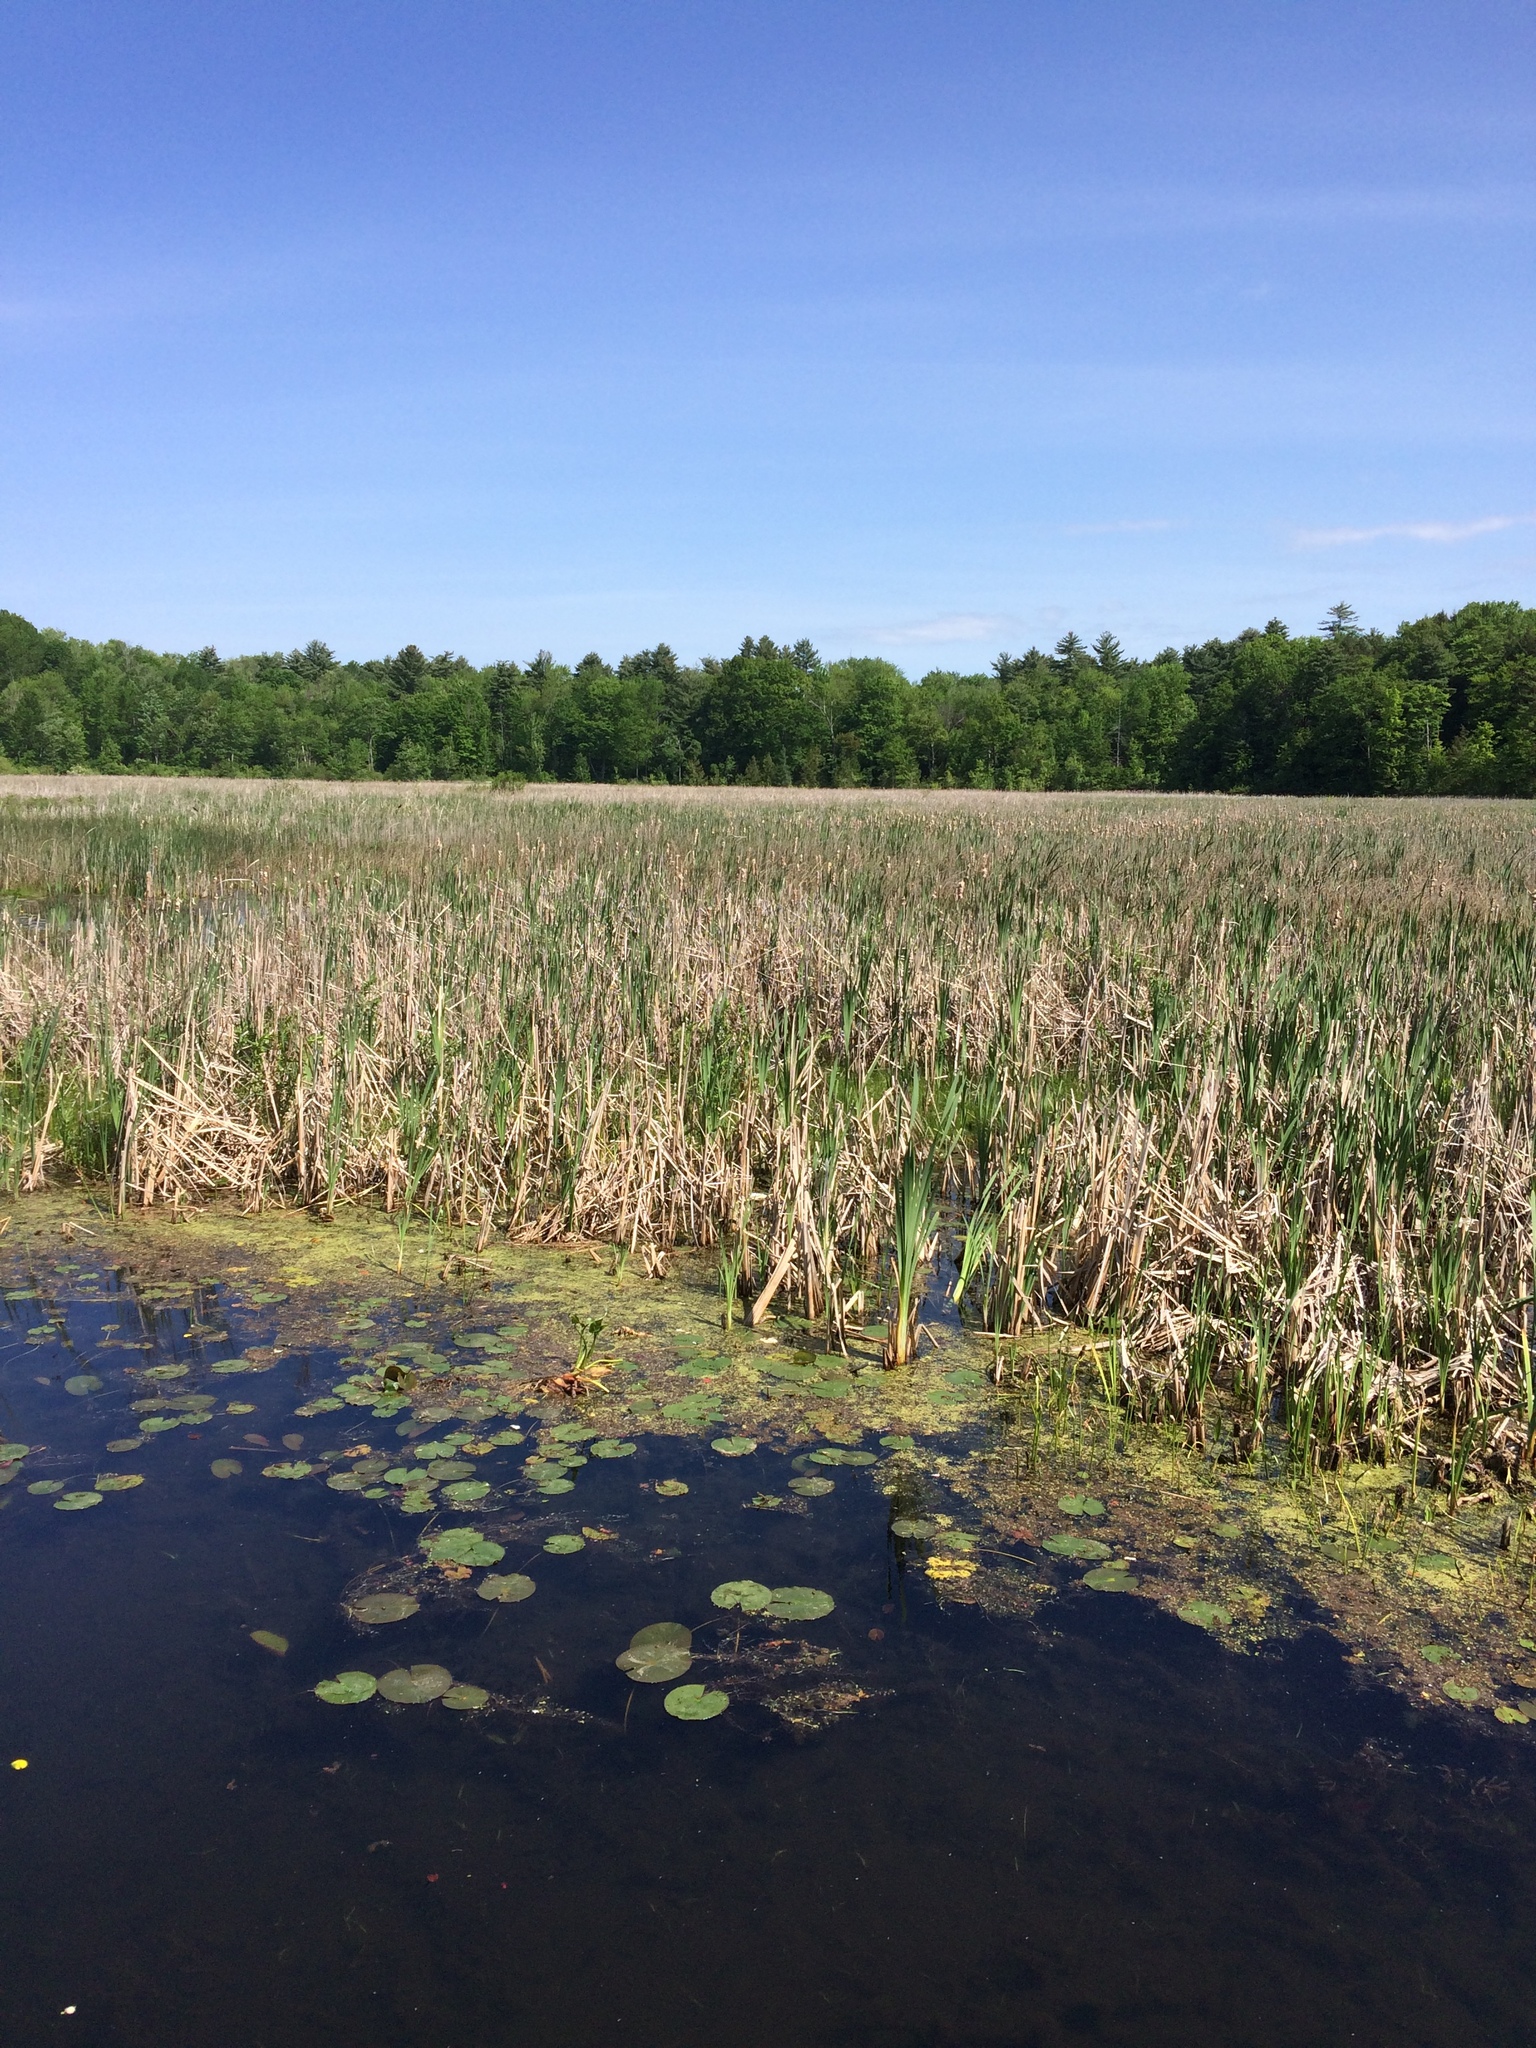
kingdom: Plantae
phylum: Tracheophyta
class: Liliopsida
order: Poales
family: Typhaceae
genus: Typha
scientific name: Typha
